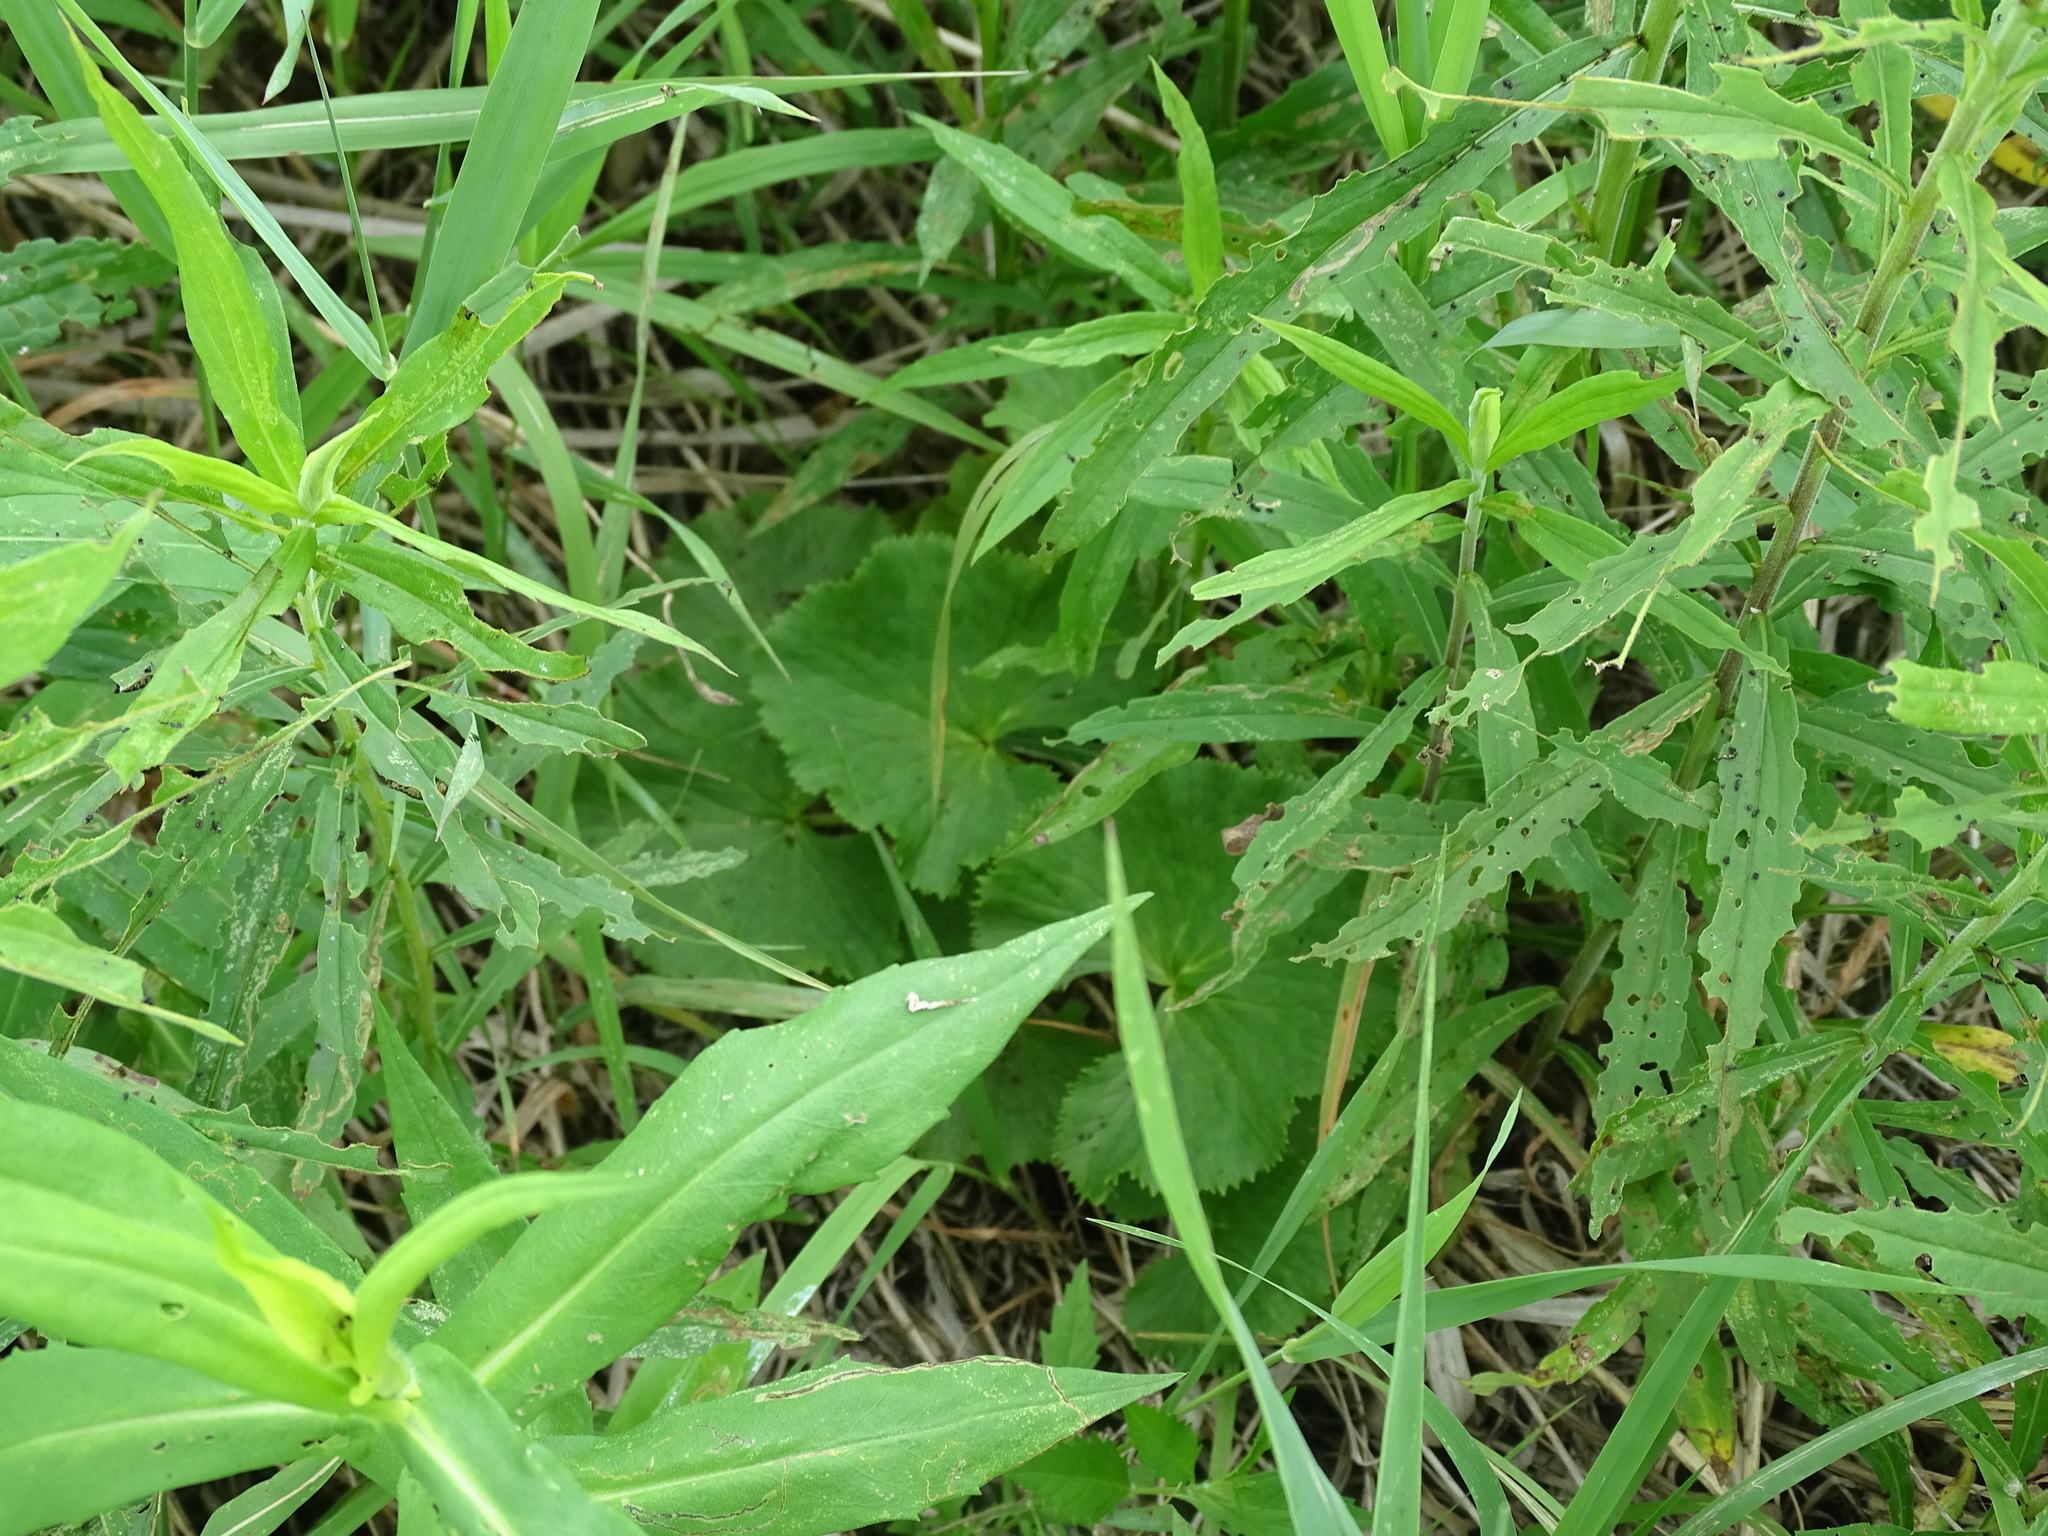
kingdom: Plantae
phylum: Tracheophyta
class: Magnoliopsida
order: Ranunculales
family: Ranunculaceae
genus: Caltha
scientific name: Caltha palustris
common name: Marsh marigold
